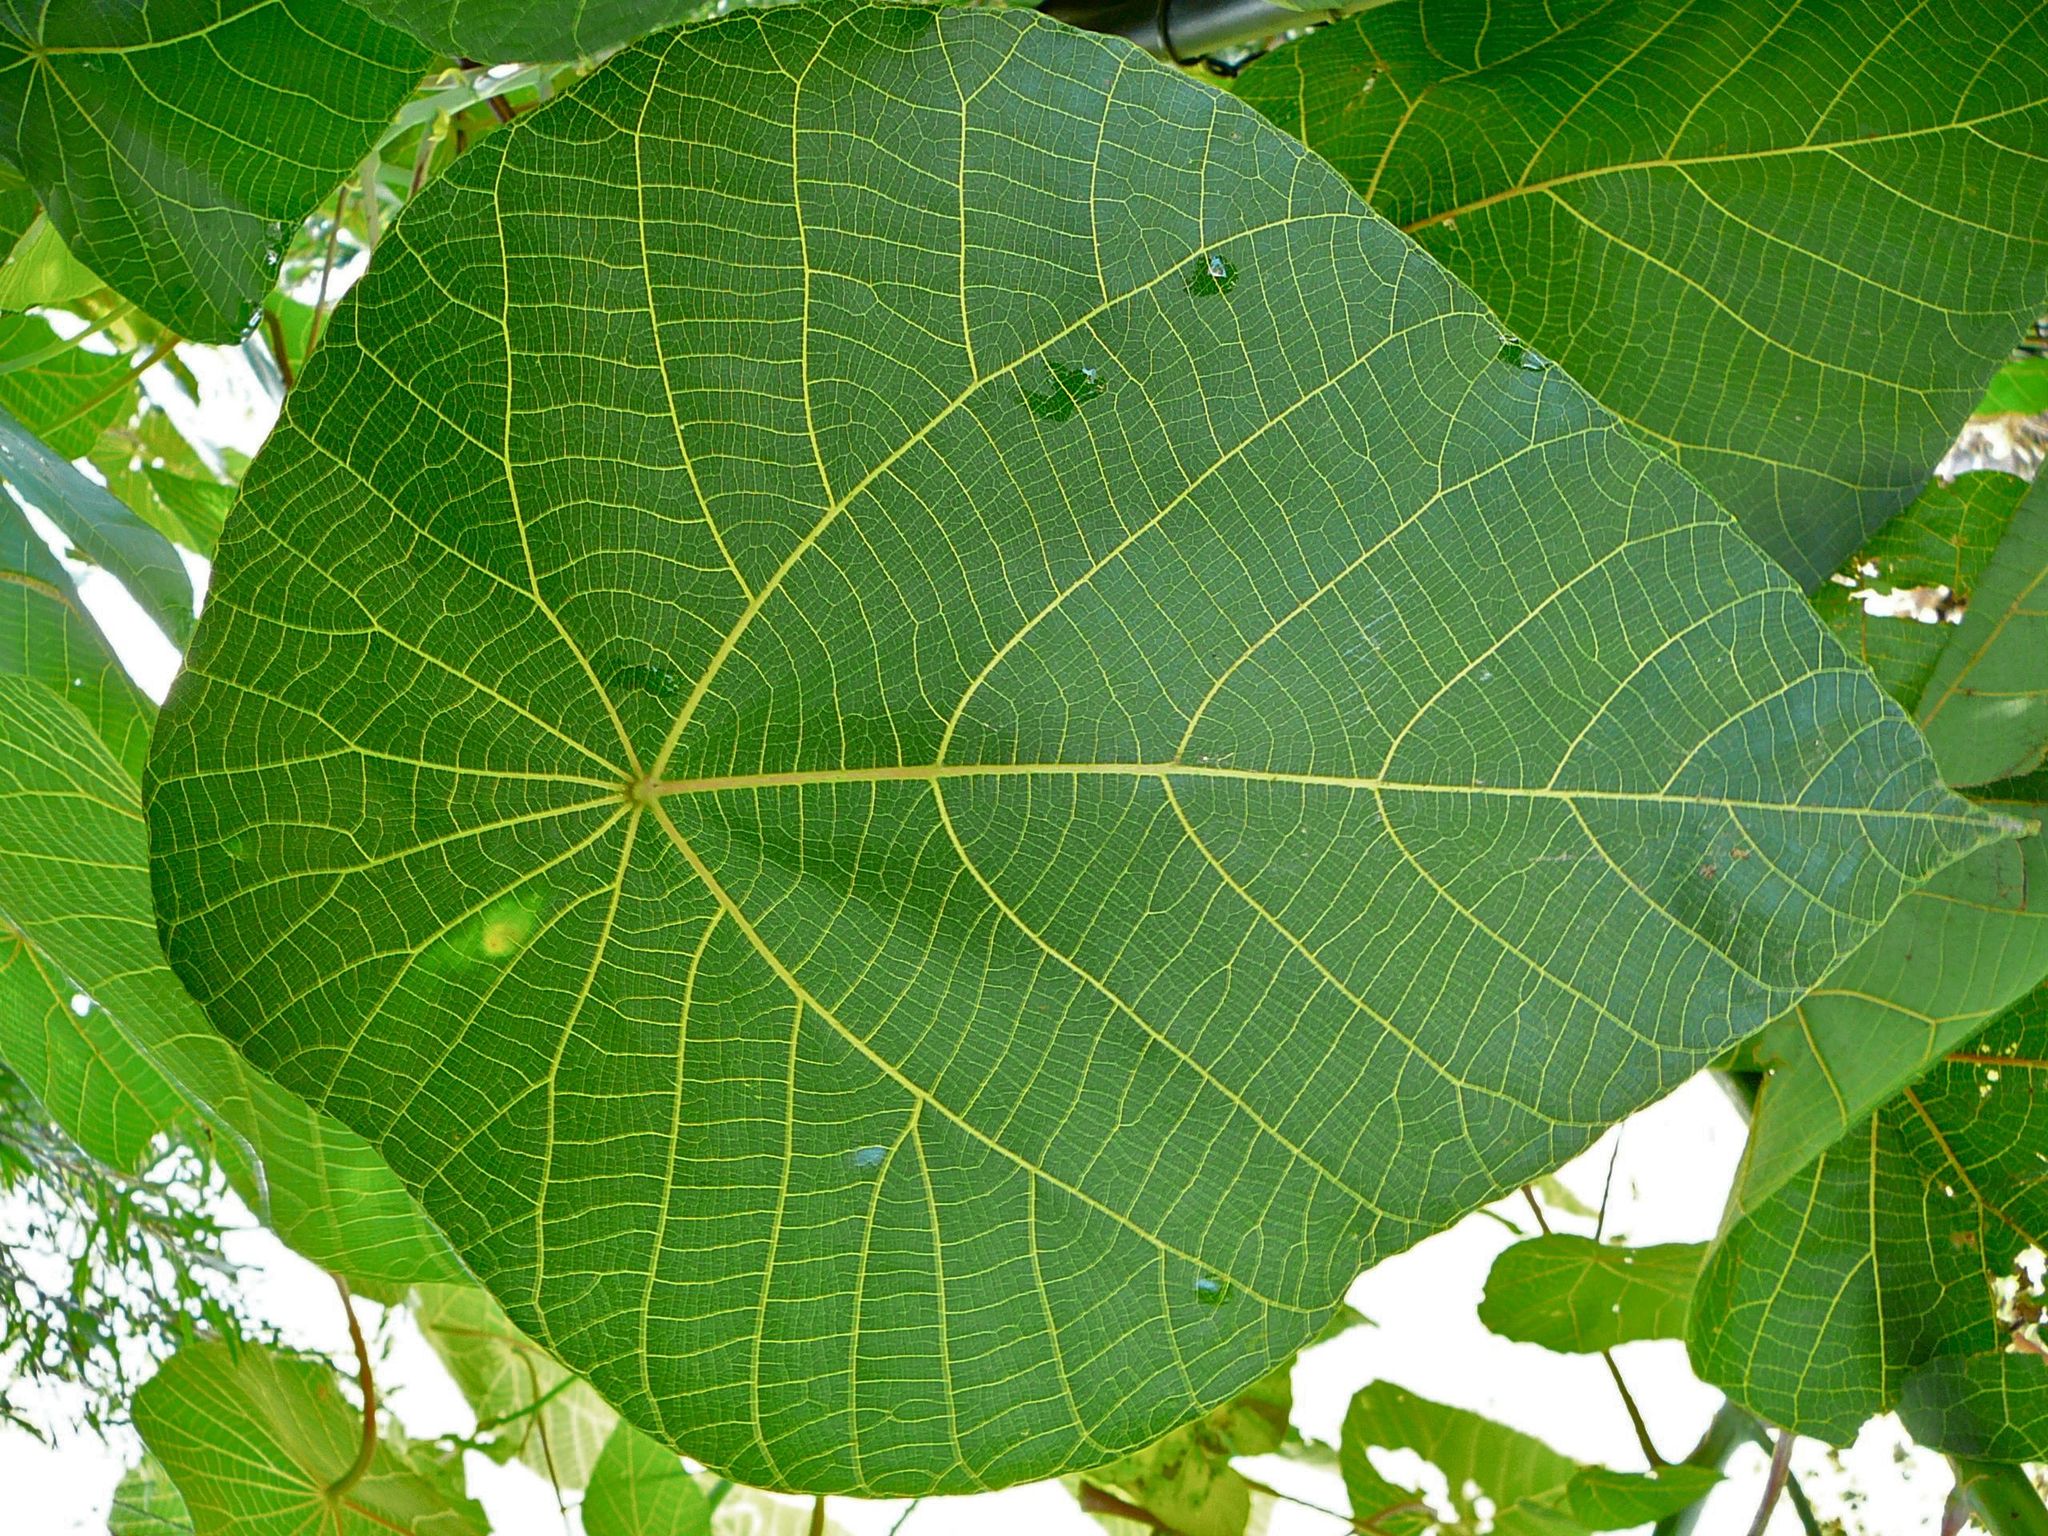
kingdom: Plantae
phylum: Tracheophyta
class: Magnoliopsida
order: Malpighiales
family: Euphorbiaceae
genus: Macaranga
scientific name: Macaranga tanarius
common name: Parasol leaf tree
